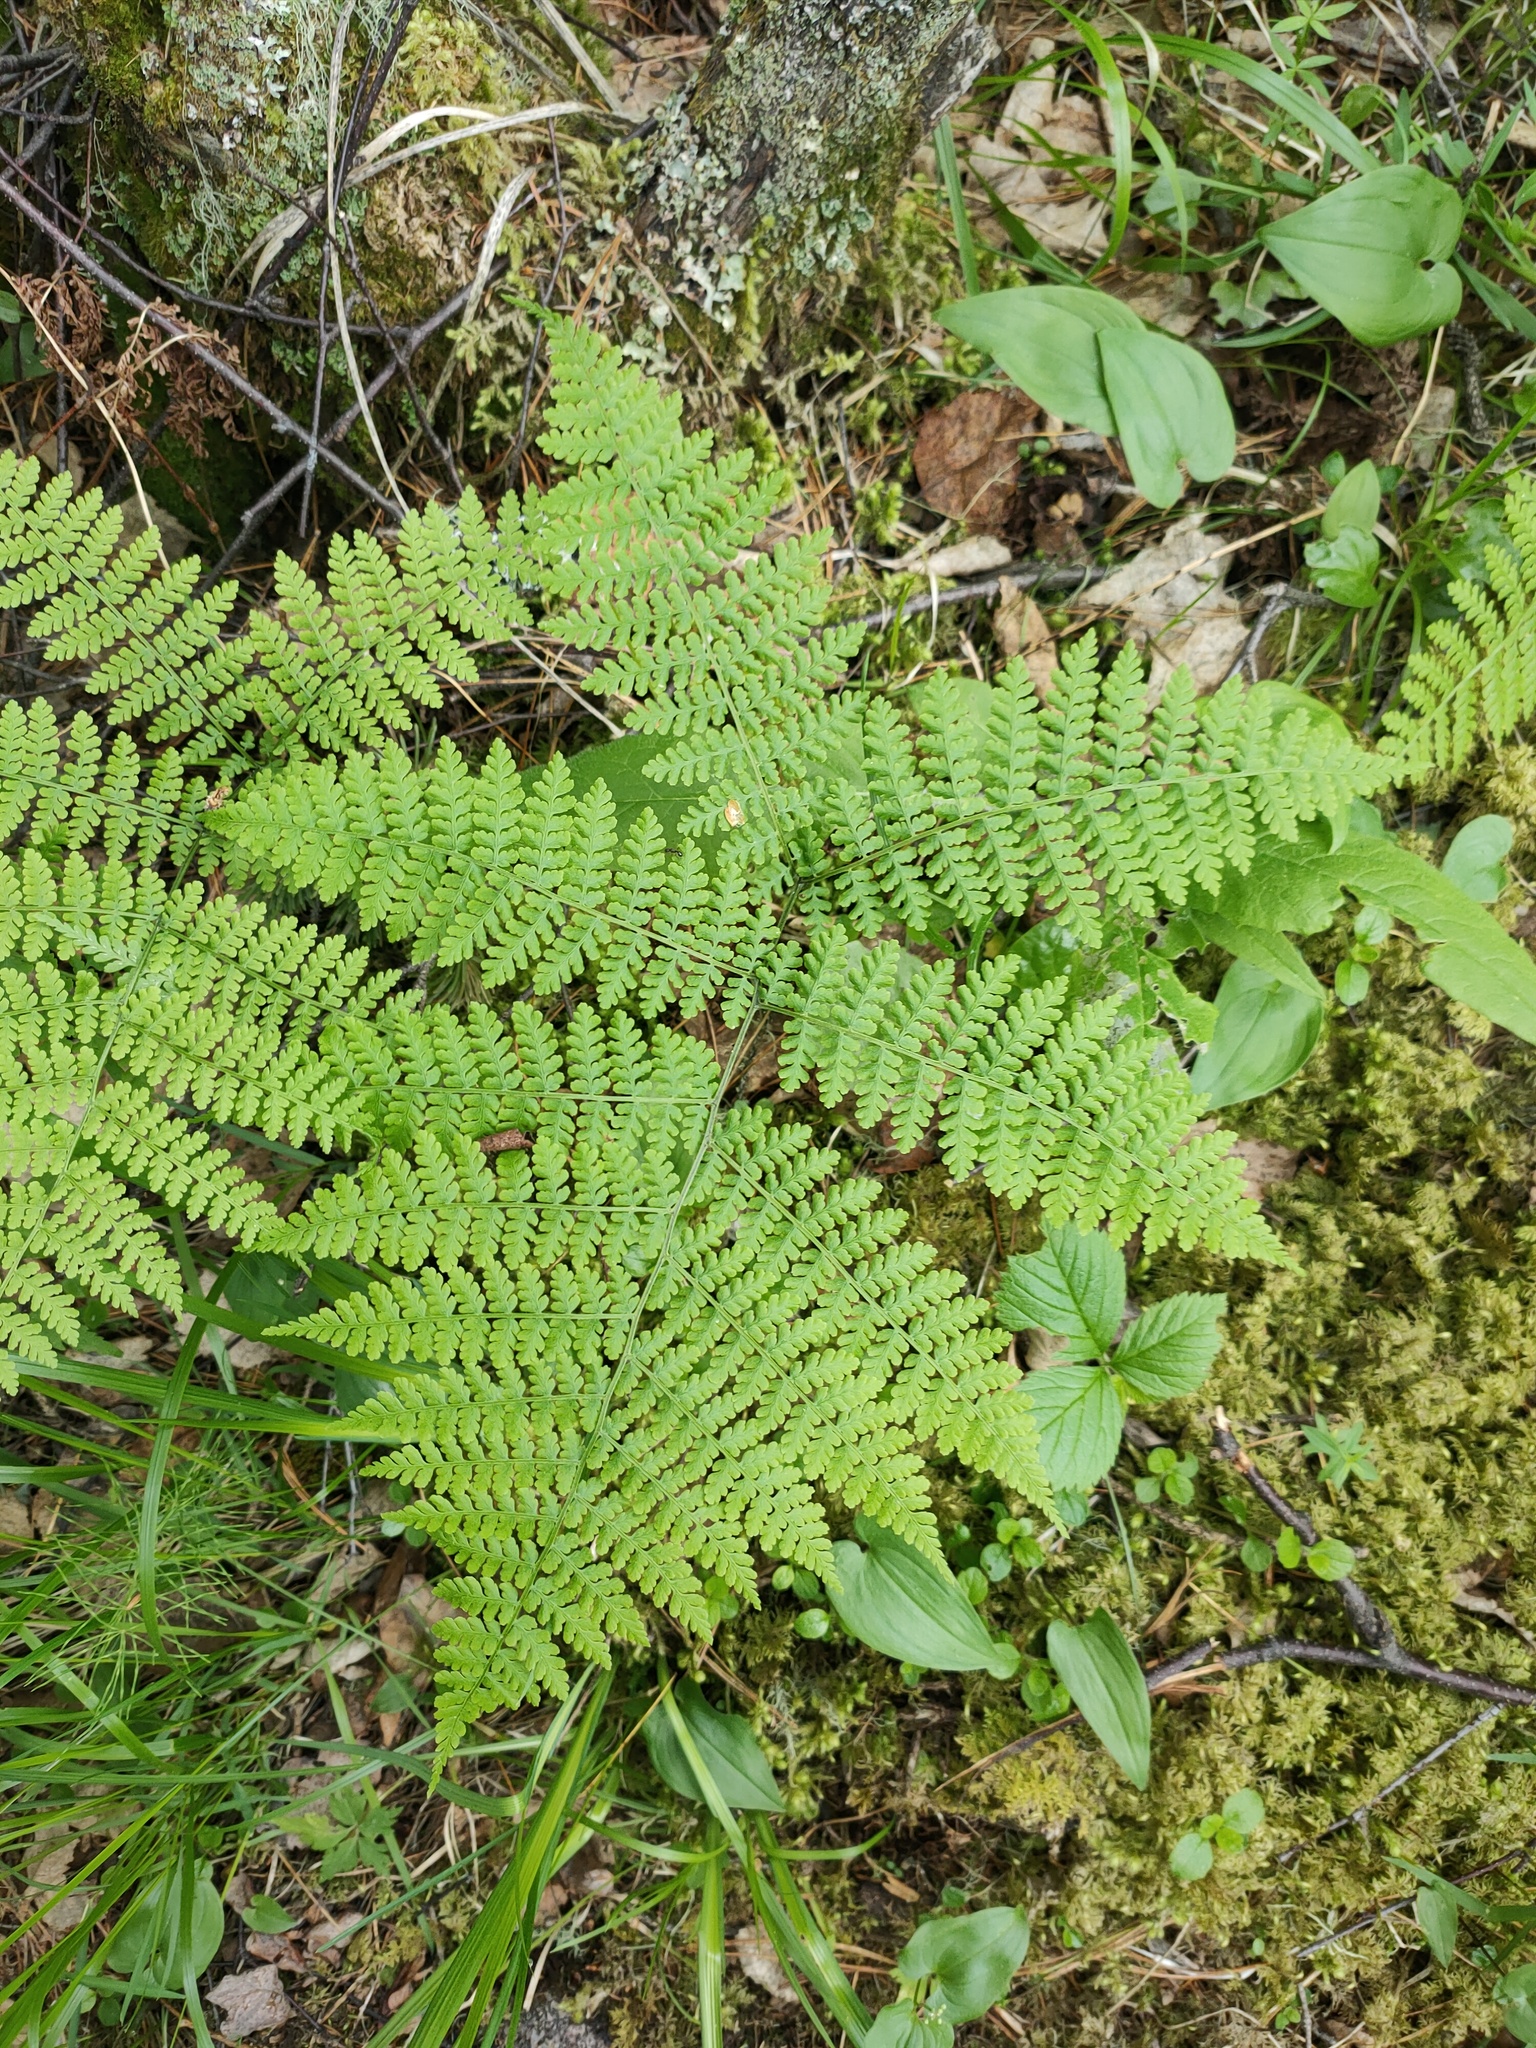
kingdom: Plantae
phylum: Tracheophyta
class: Polypodiopsida
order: Polypodiales
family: Athyriaceae
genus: Diplazium
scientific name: Diplazium sibiricum
